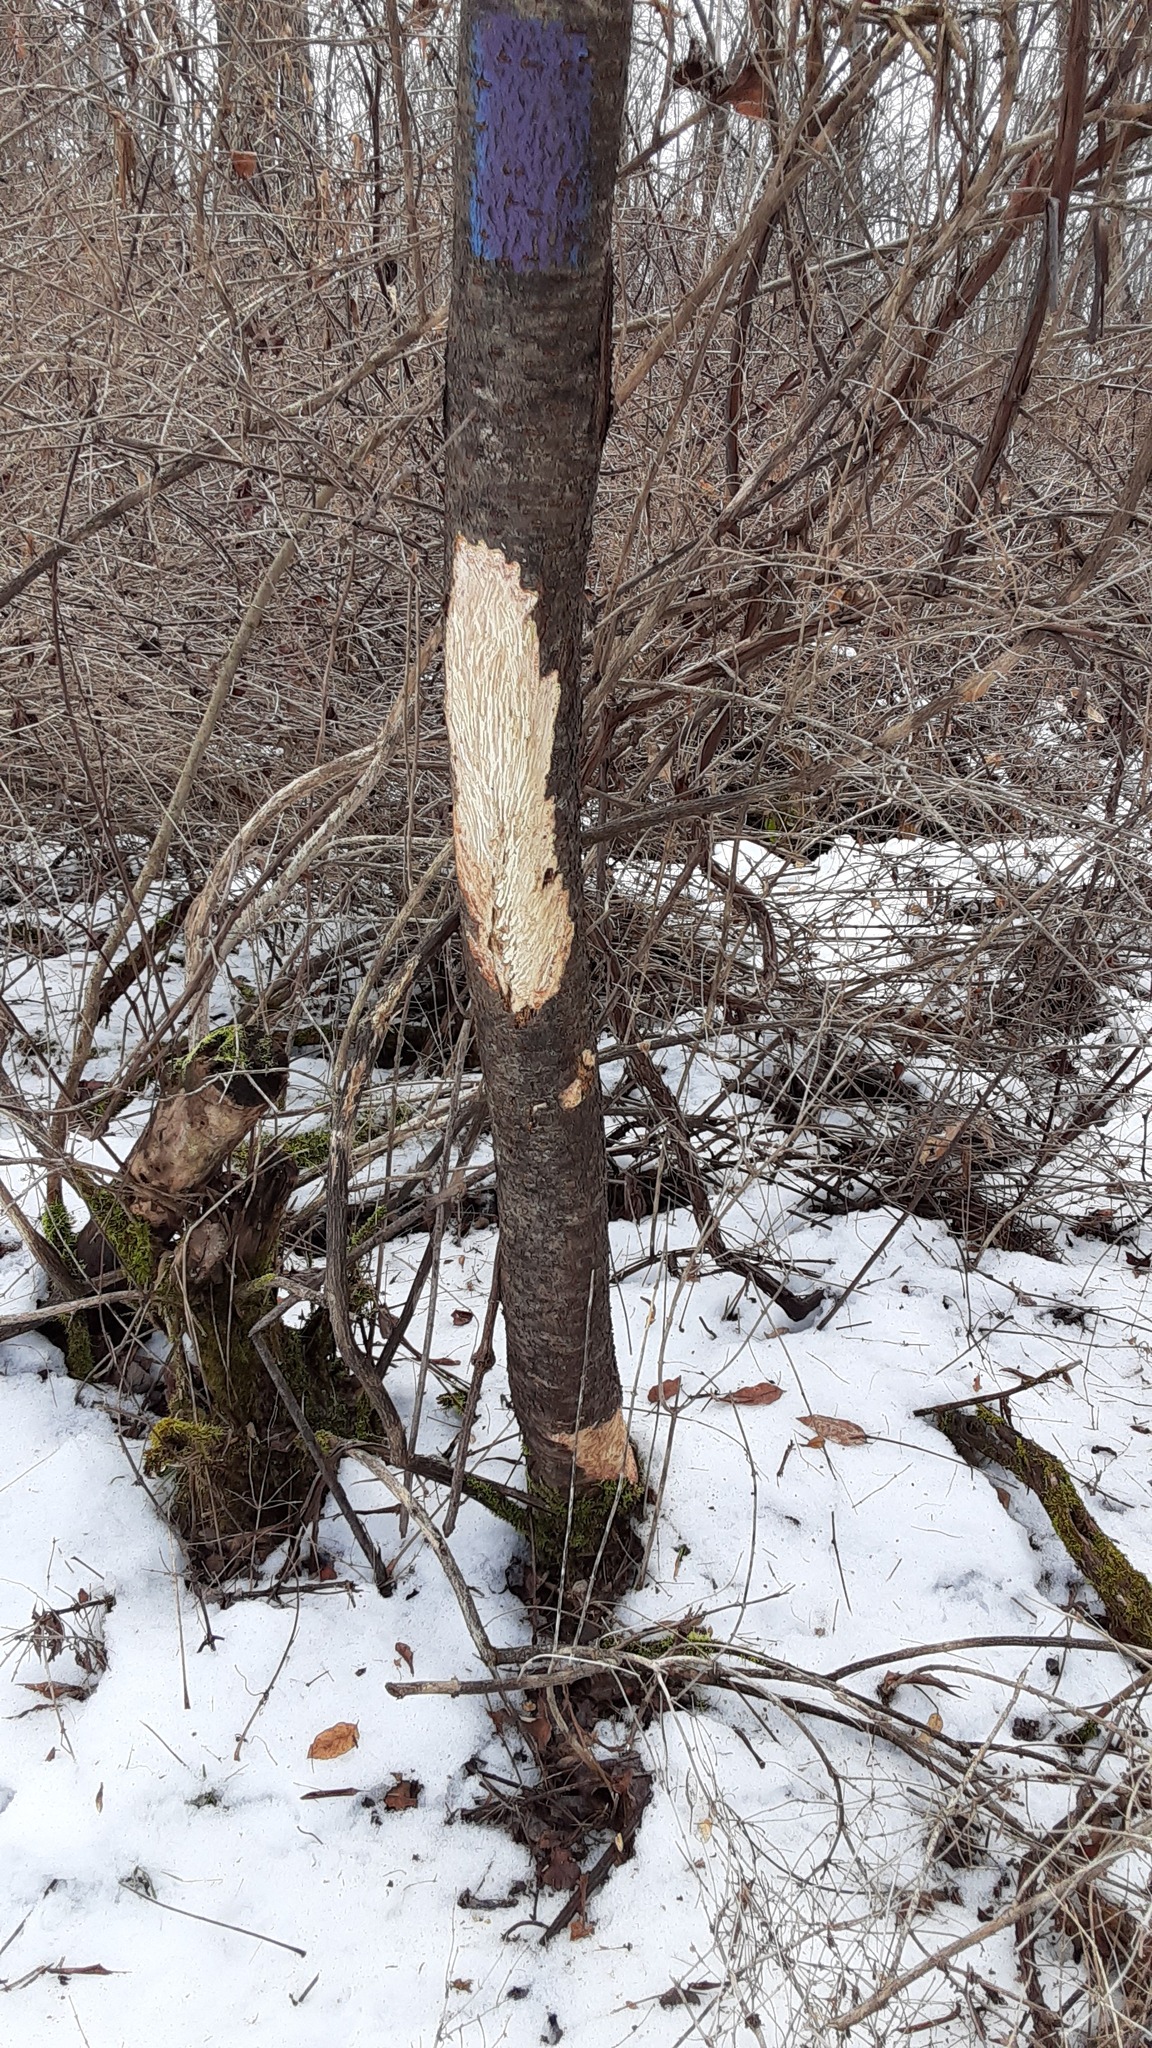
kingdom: Animalia
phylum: Chordata
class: Mammalia
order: Rodentia
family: Erethizontidae
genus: Erethizon
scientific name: Erethizon dorsatus
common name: North american porcupine
